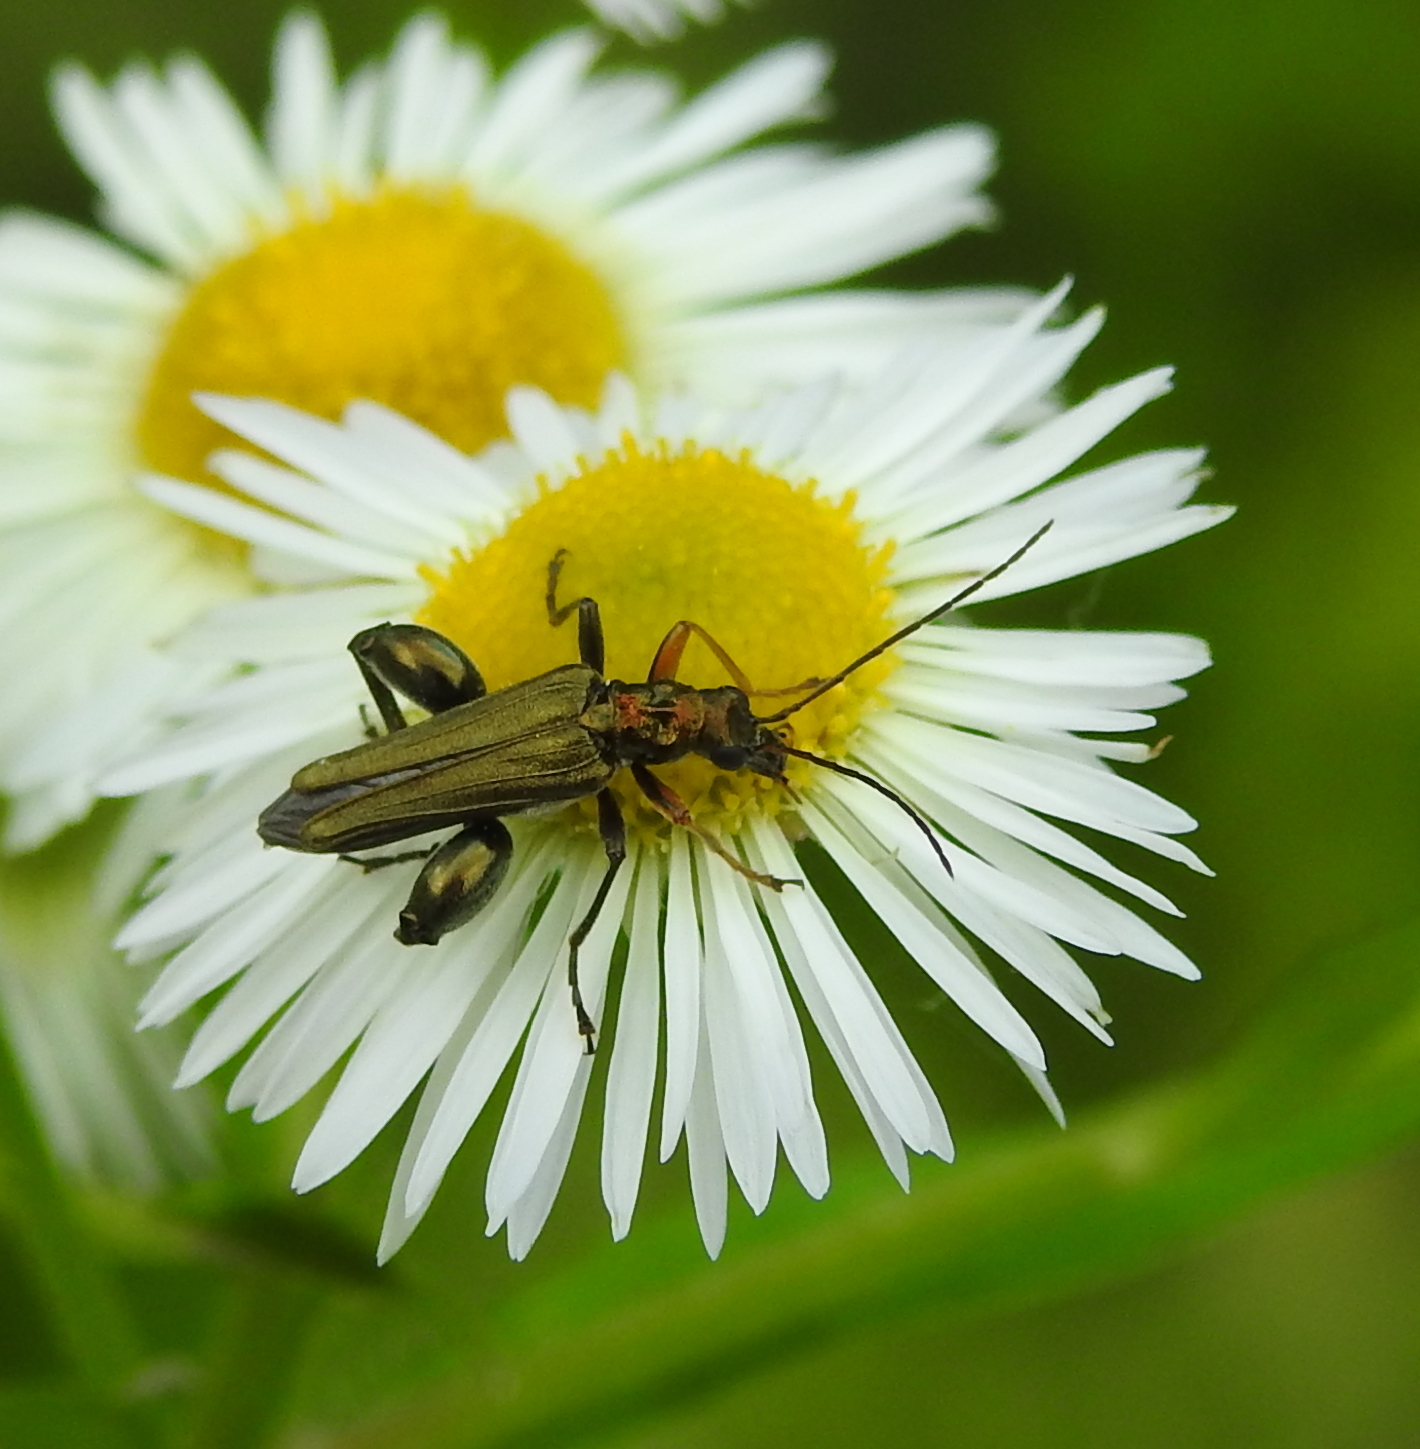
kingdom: Animalia
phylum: Arthropoda
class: Insecta
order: Coleoptera
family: Oedemeridae
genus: Oedemera
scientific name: Oedemera flavipes
